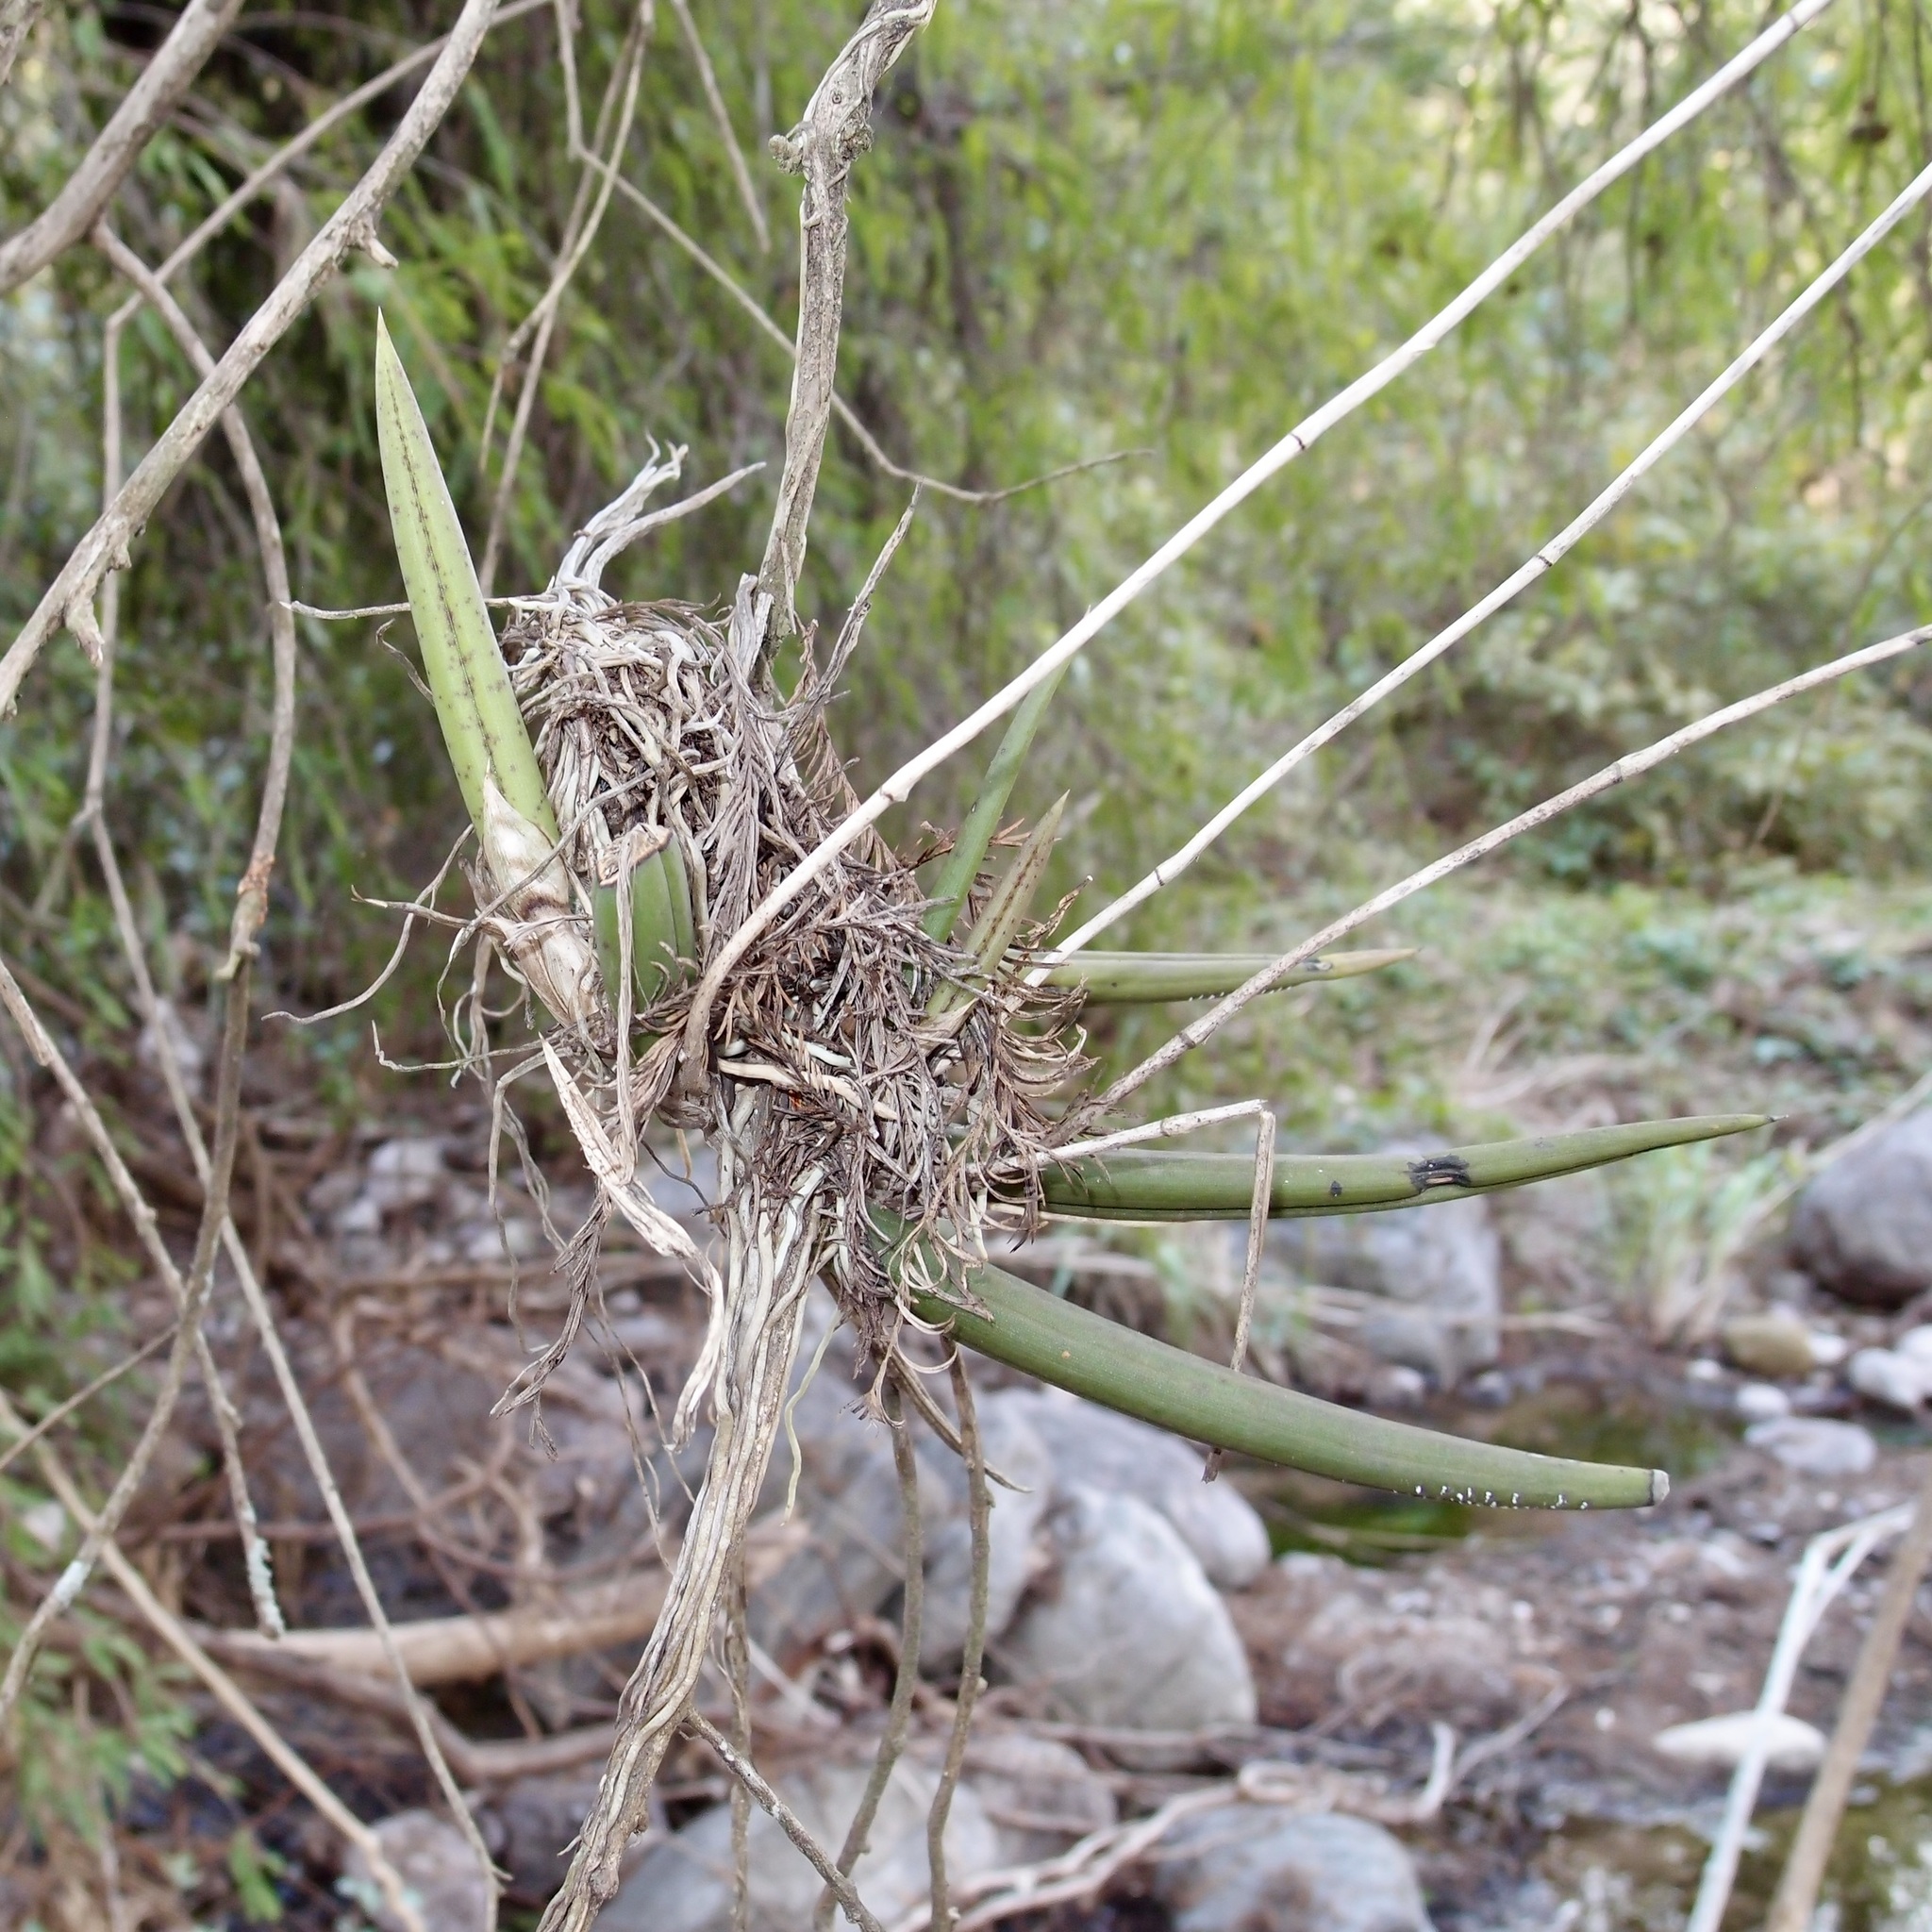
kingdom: Plantae
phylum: Tracheophyta
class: Liliopsida
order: Asparagales
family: Orchidaceae
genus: Trichocentrum
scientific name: Trichocentrum leptotifolium
